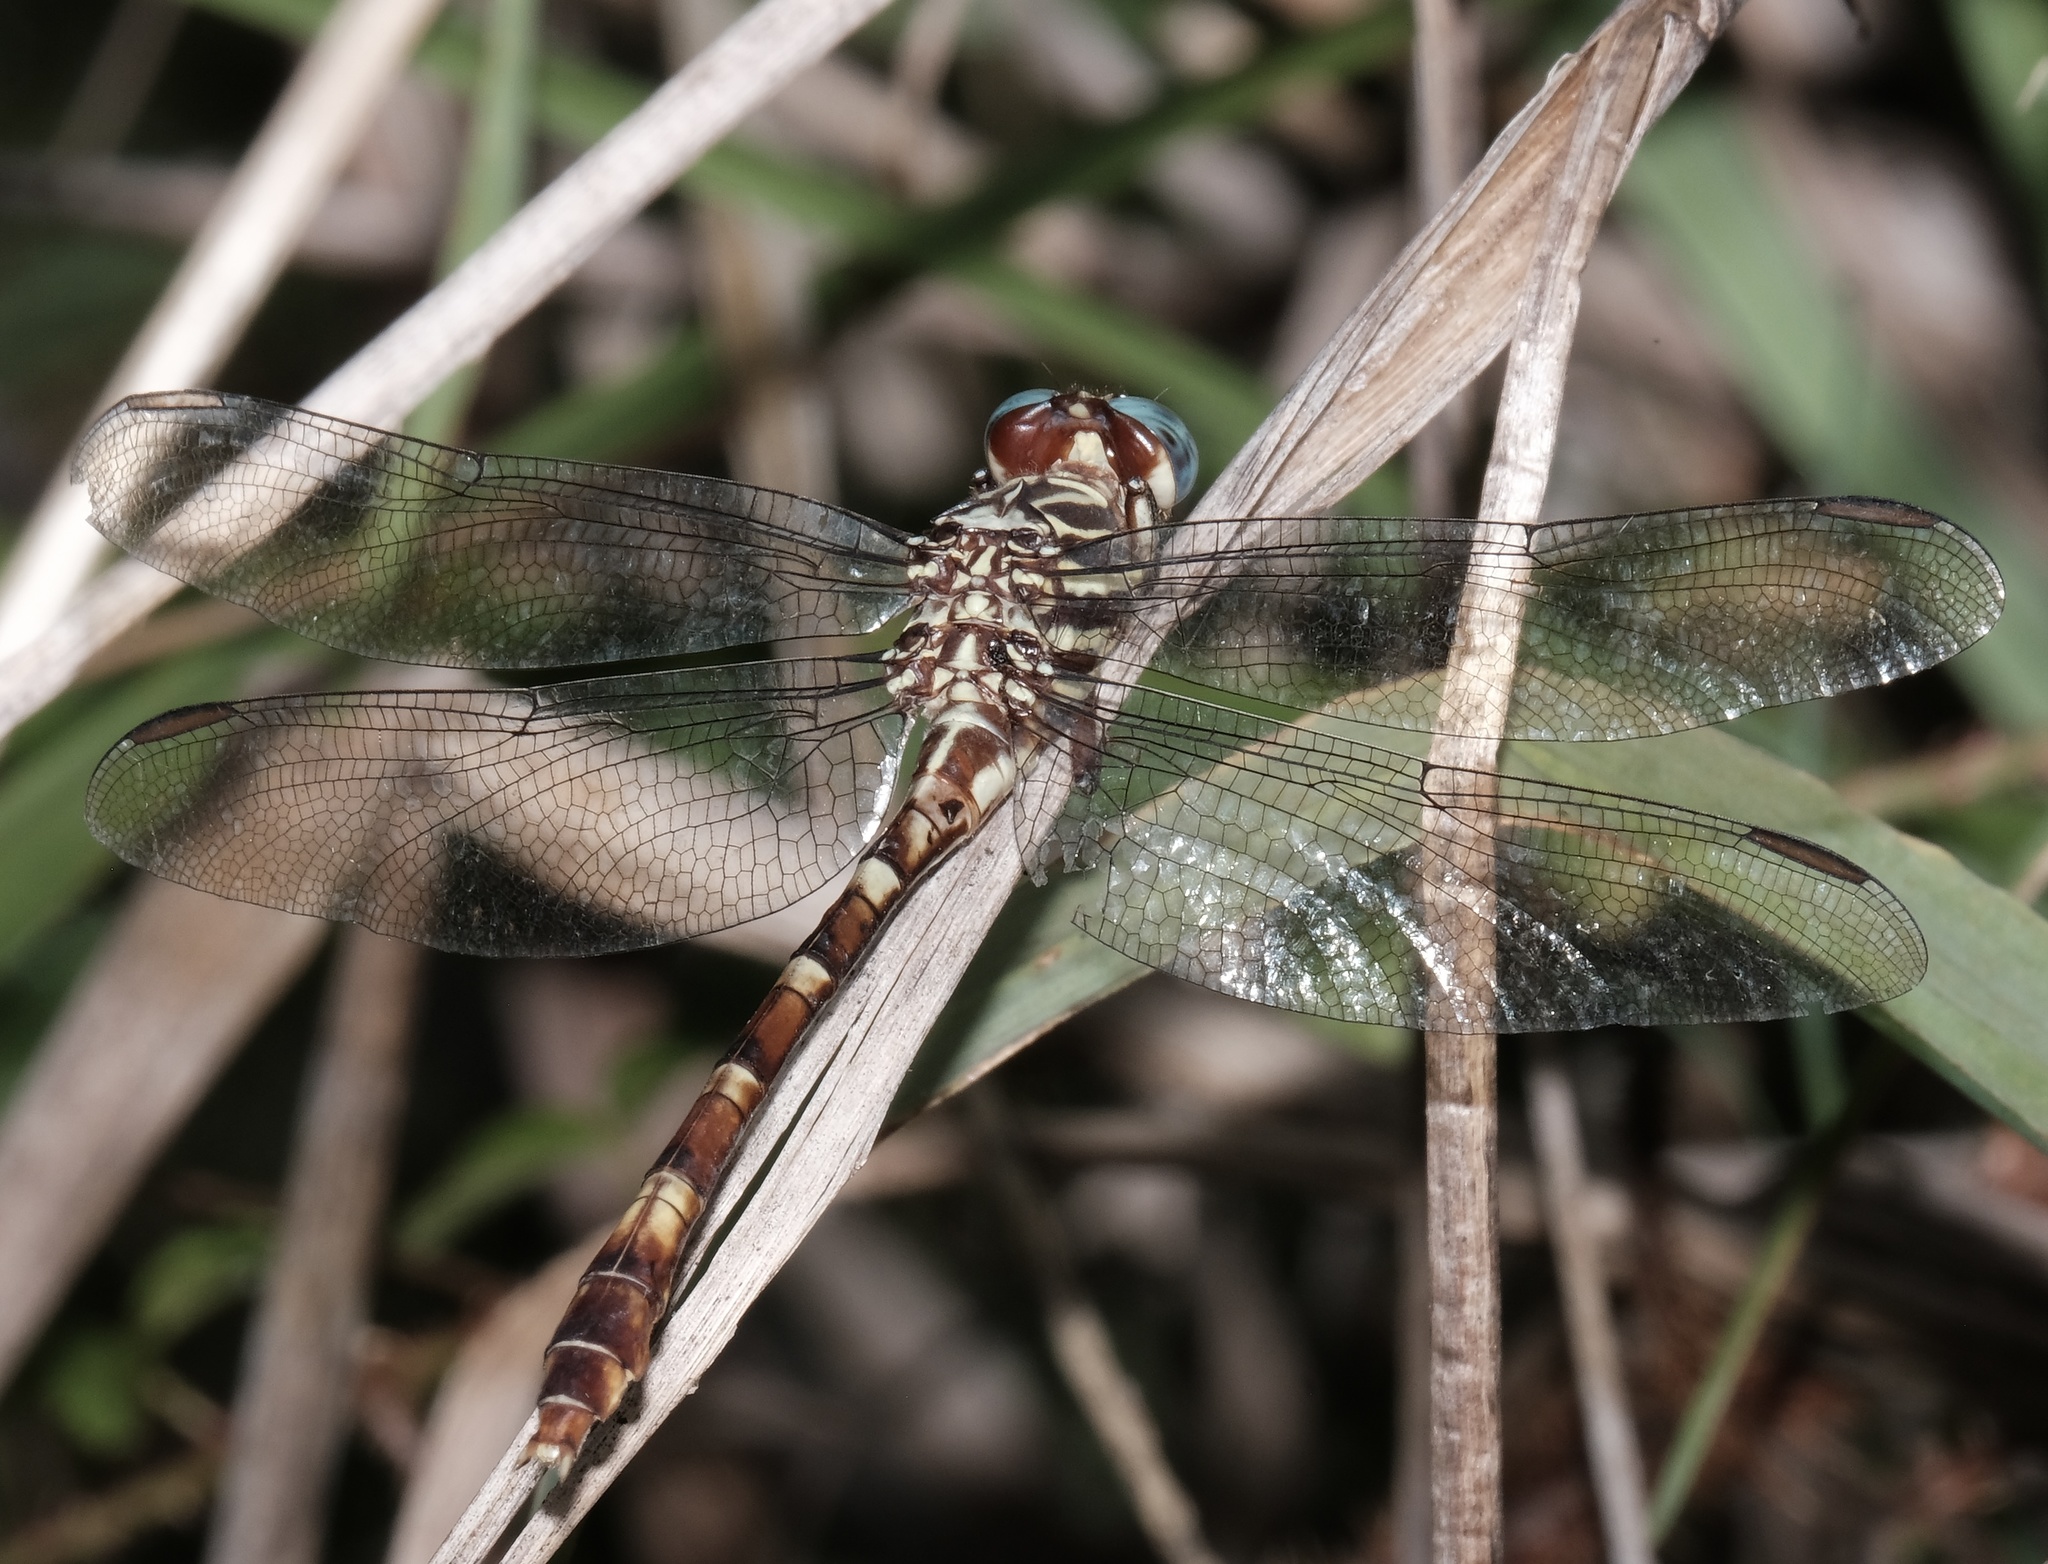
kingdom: Animalia
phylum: Arthropoda
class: Insecta
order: Odonata
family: Gomphidae
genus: Aphylla
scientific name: Aphylla angustifolia
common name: Broad-striped forceptail
